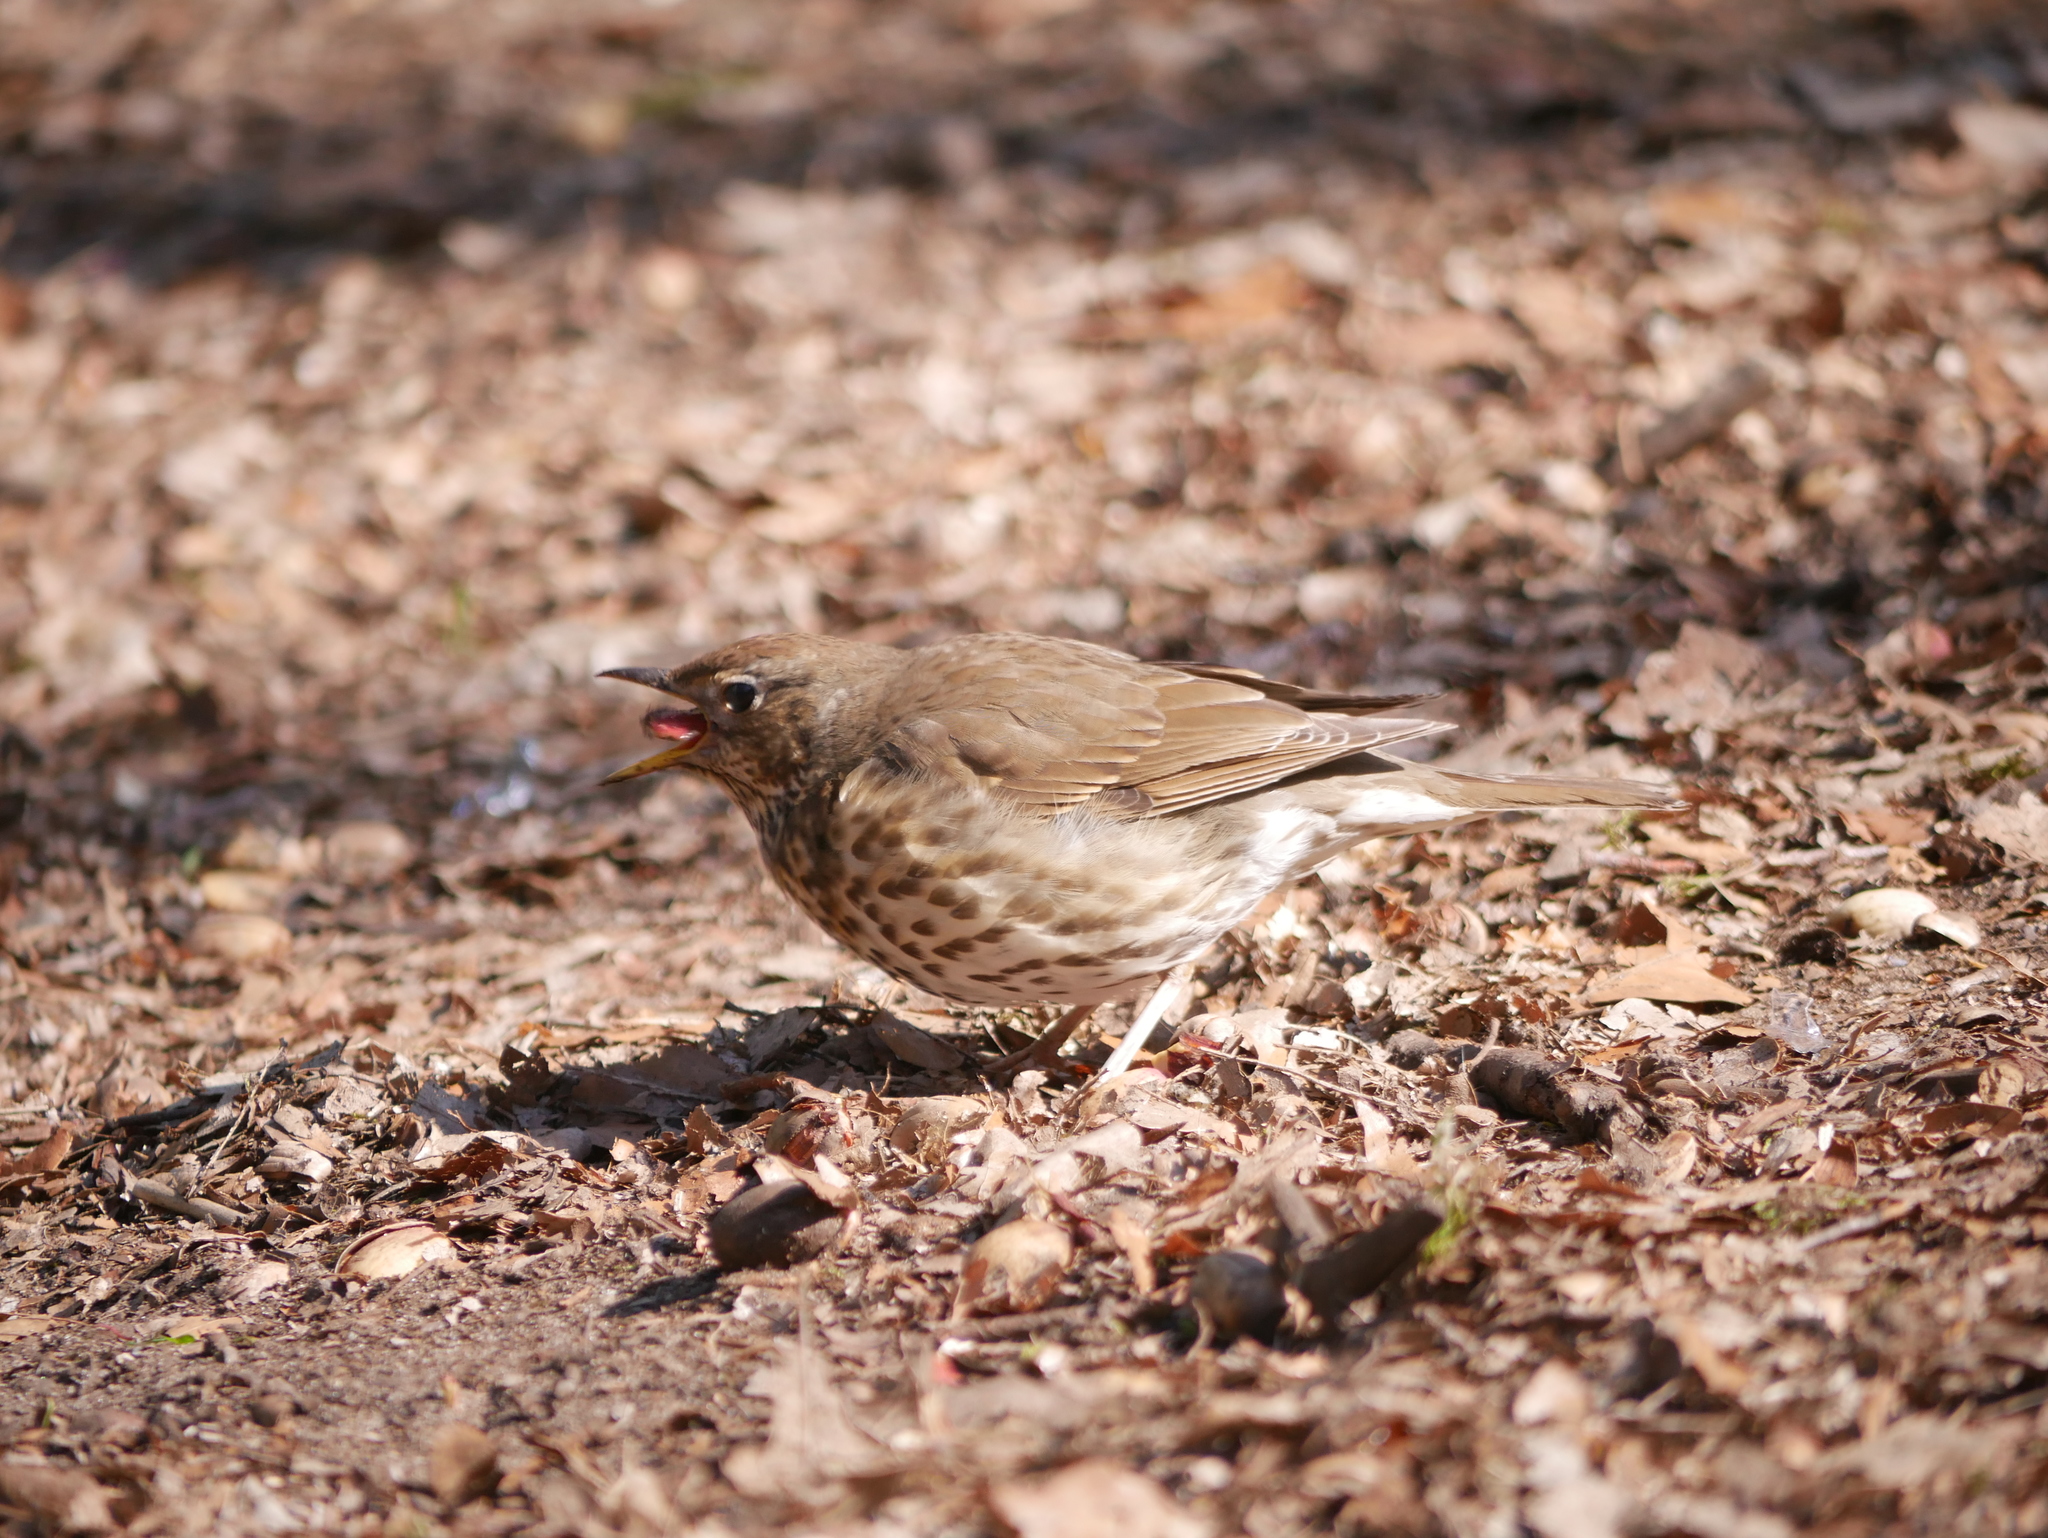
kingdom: Animalia
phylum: Chordata
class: Aves
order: Passeriformes
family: Turdidae
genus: Turdus
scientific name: Turdus philomelos
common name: Song thrush
